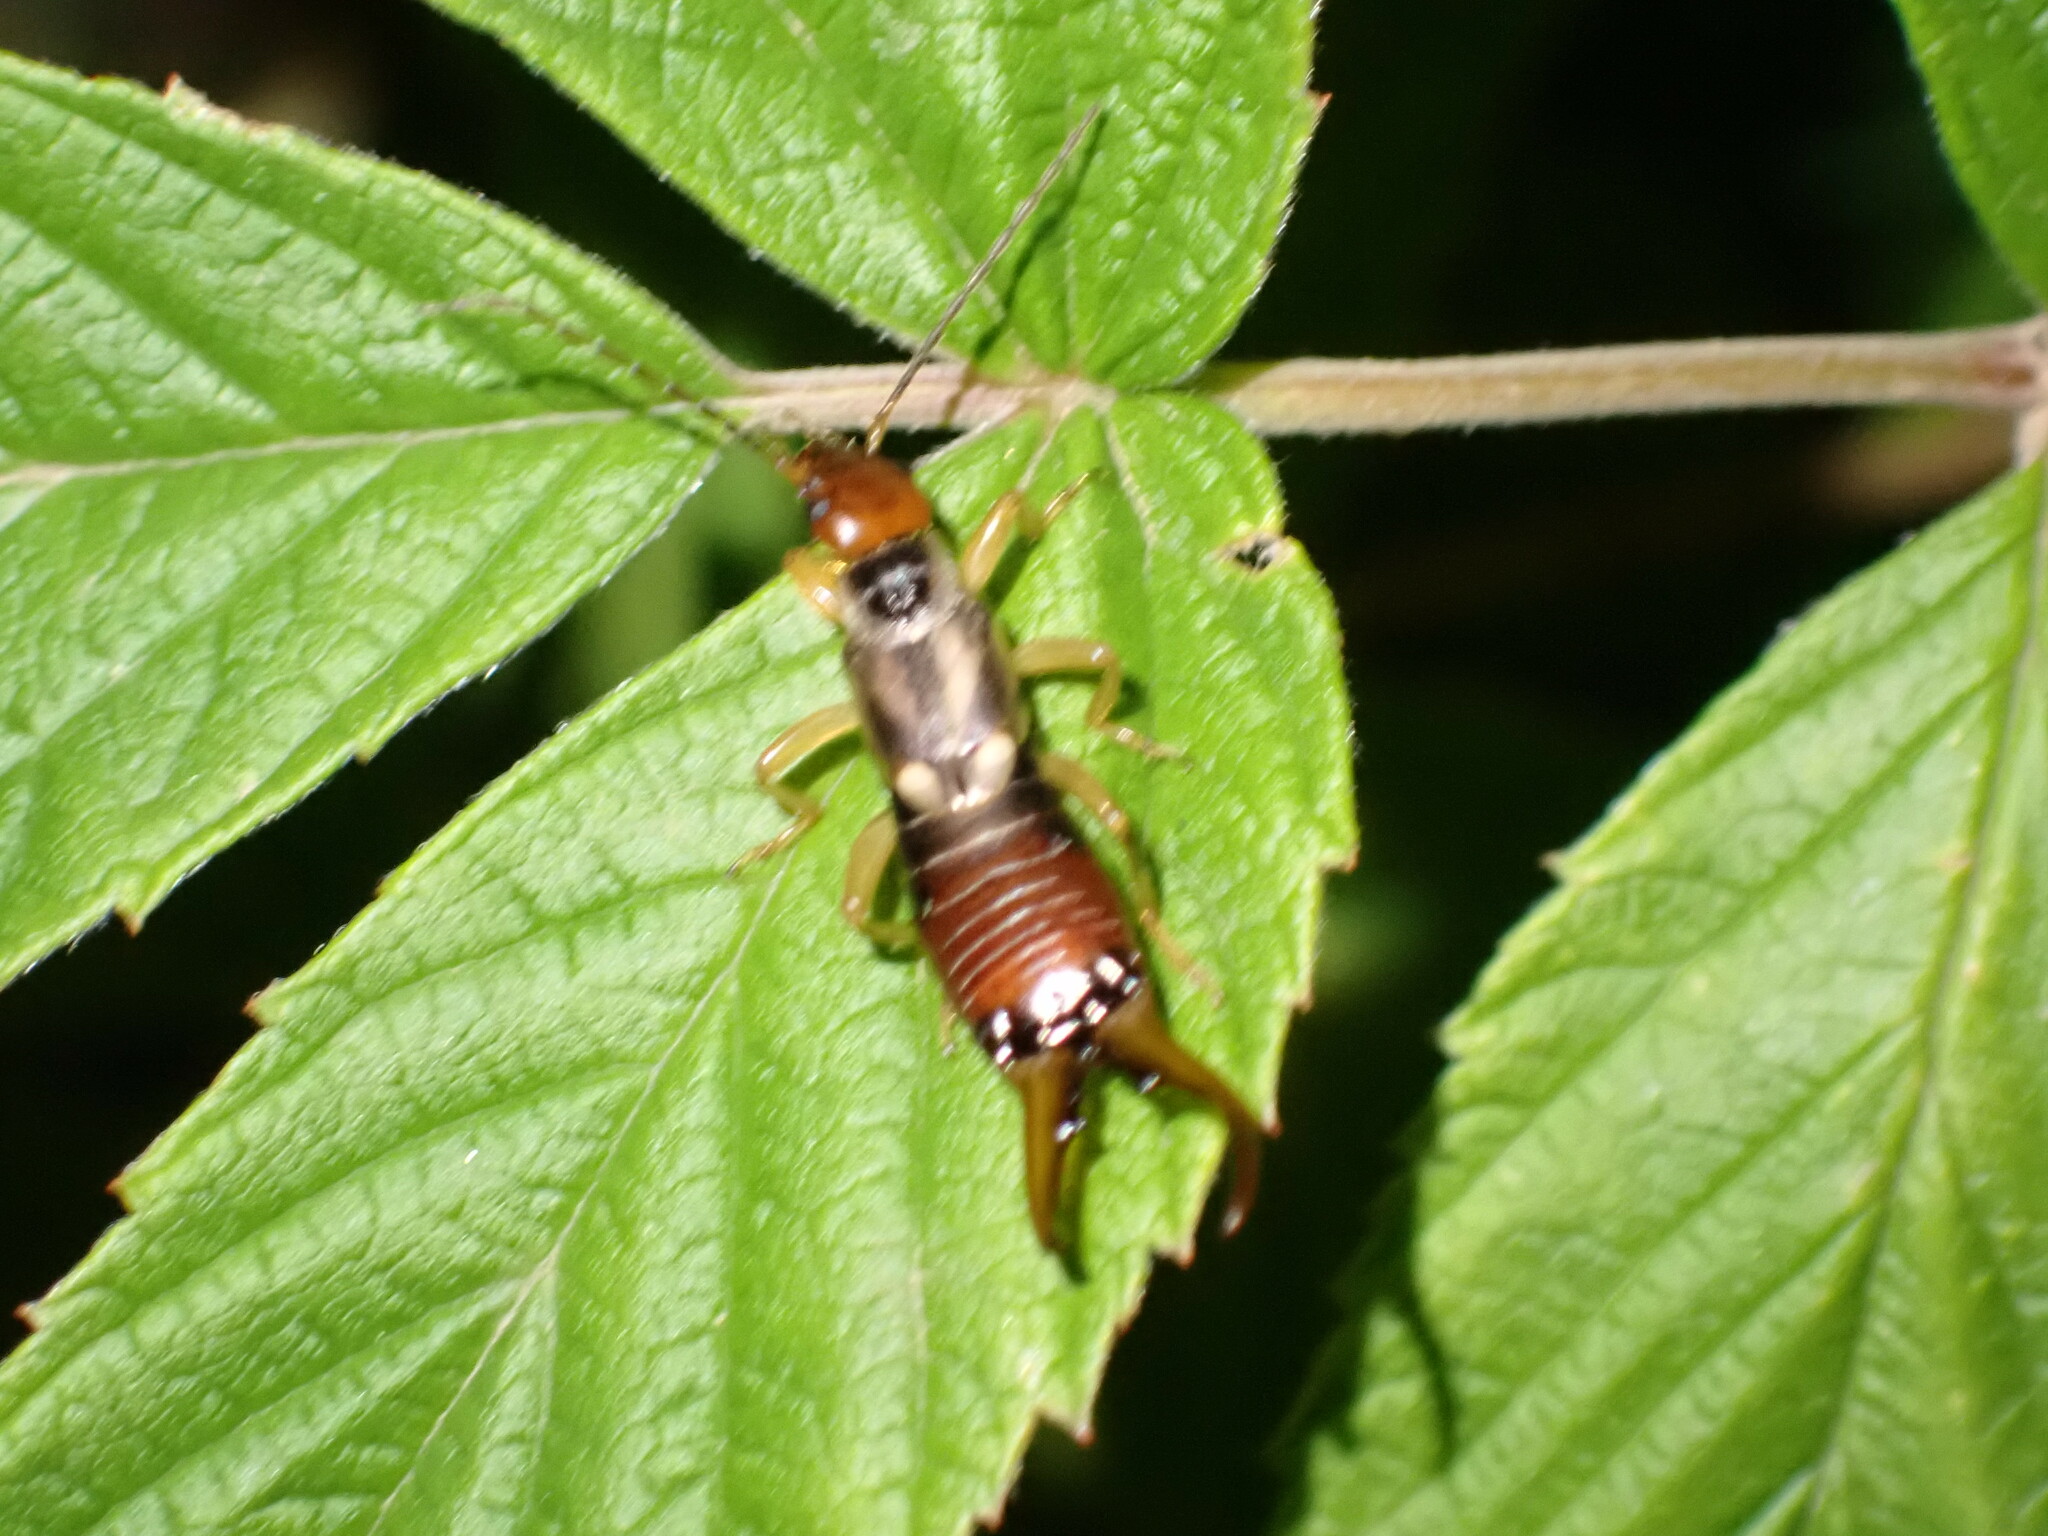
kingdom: Animalia
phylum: Arthropoda
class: Insecta
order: Dermaptera
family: Forficulidae
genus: Forficula
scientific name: Forficula
